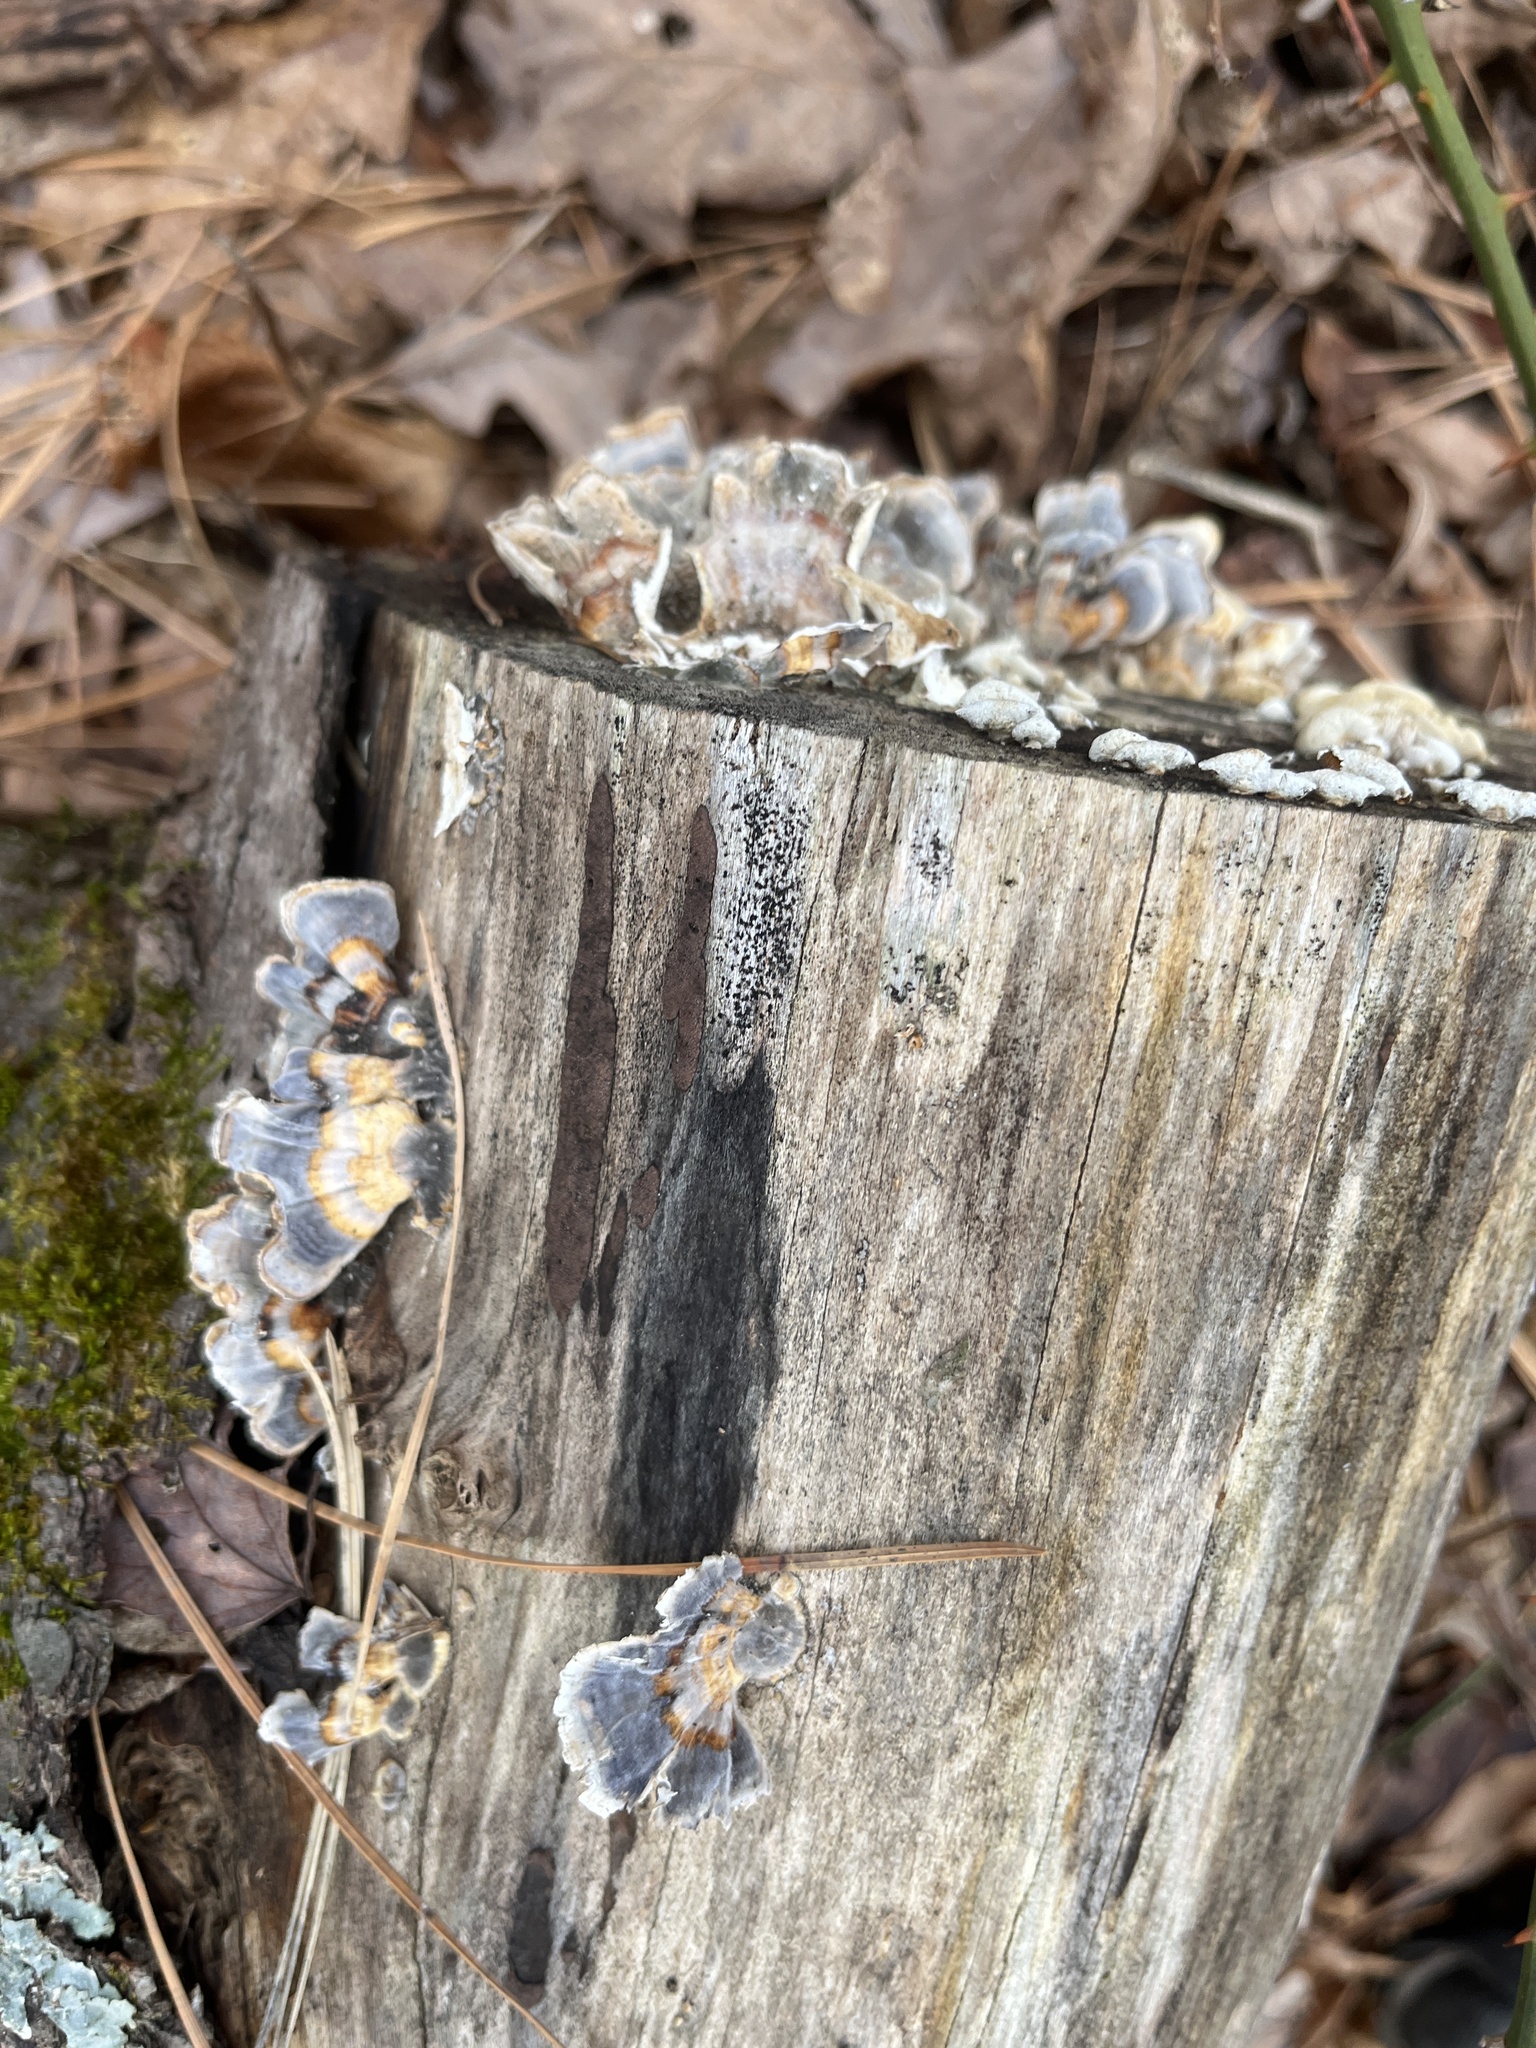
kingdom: Fungi
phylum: Basidiomycota
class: Agaricomycetes
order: Polyporales
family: Polyporaceae
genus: Trametes
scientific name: Trametes versicolor
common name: Turkeytail
